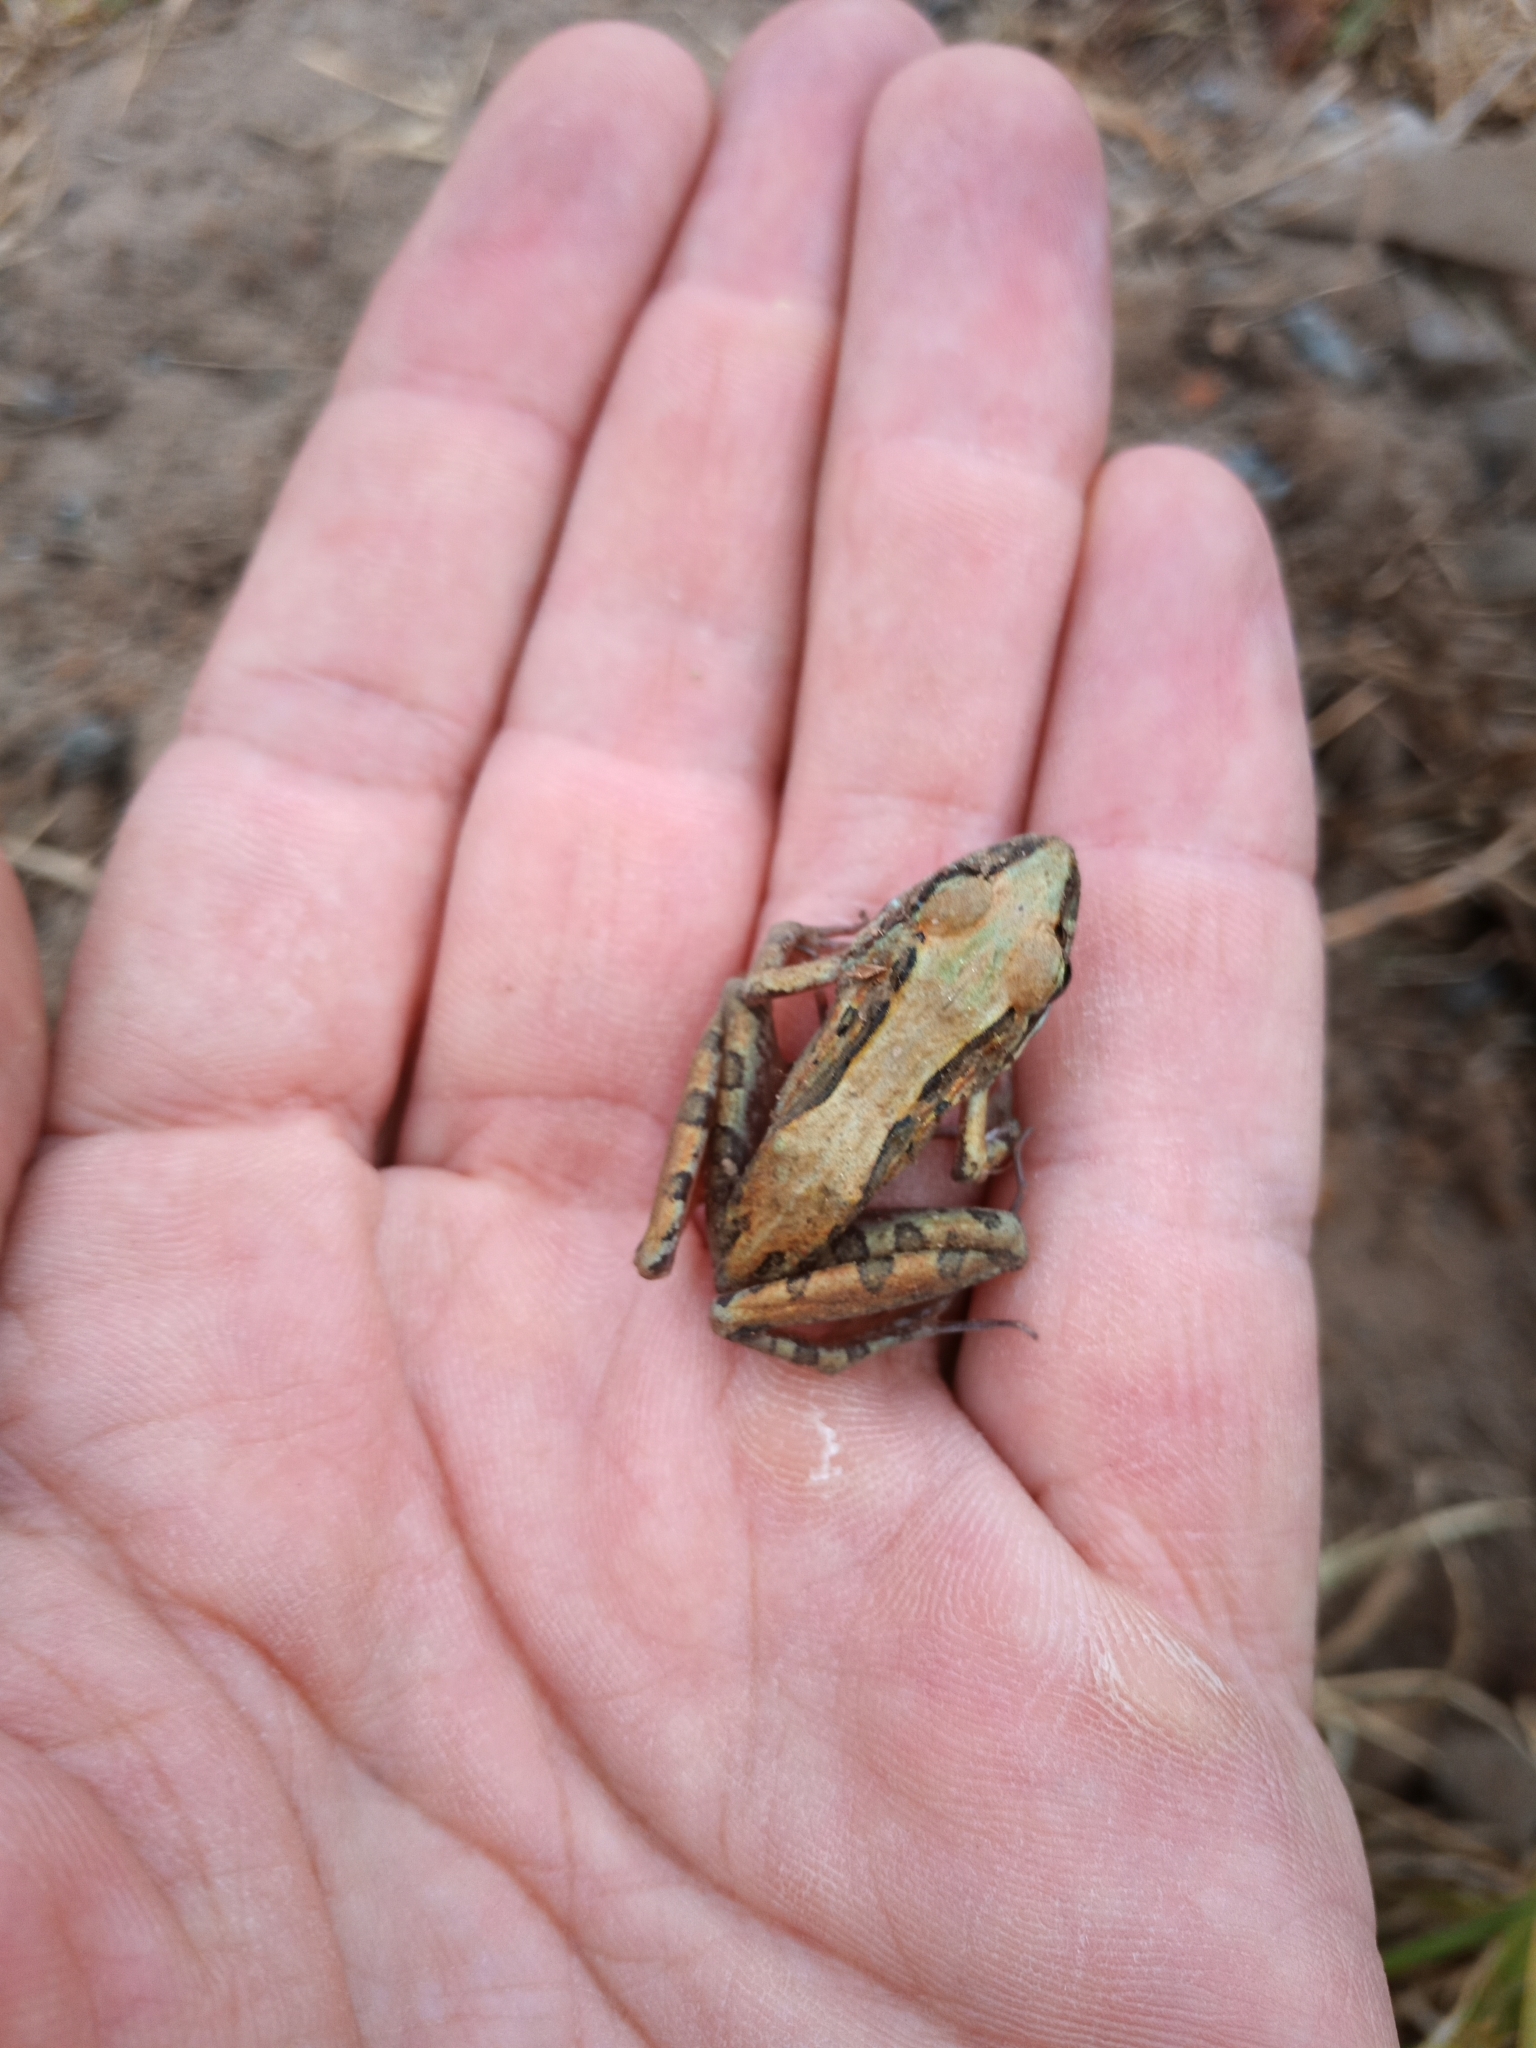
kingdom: Animalia
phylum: Chordata
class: Amphibia
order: Anura
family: Pyxicephalidae
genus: Strongylopus
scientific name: Strongylopus grayii
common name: Gray's stream frog
